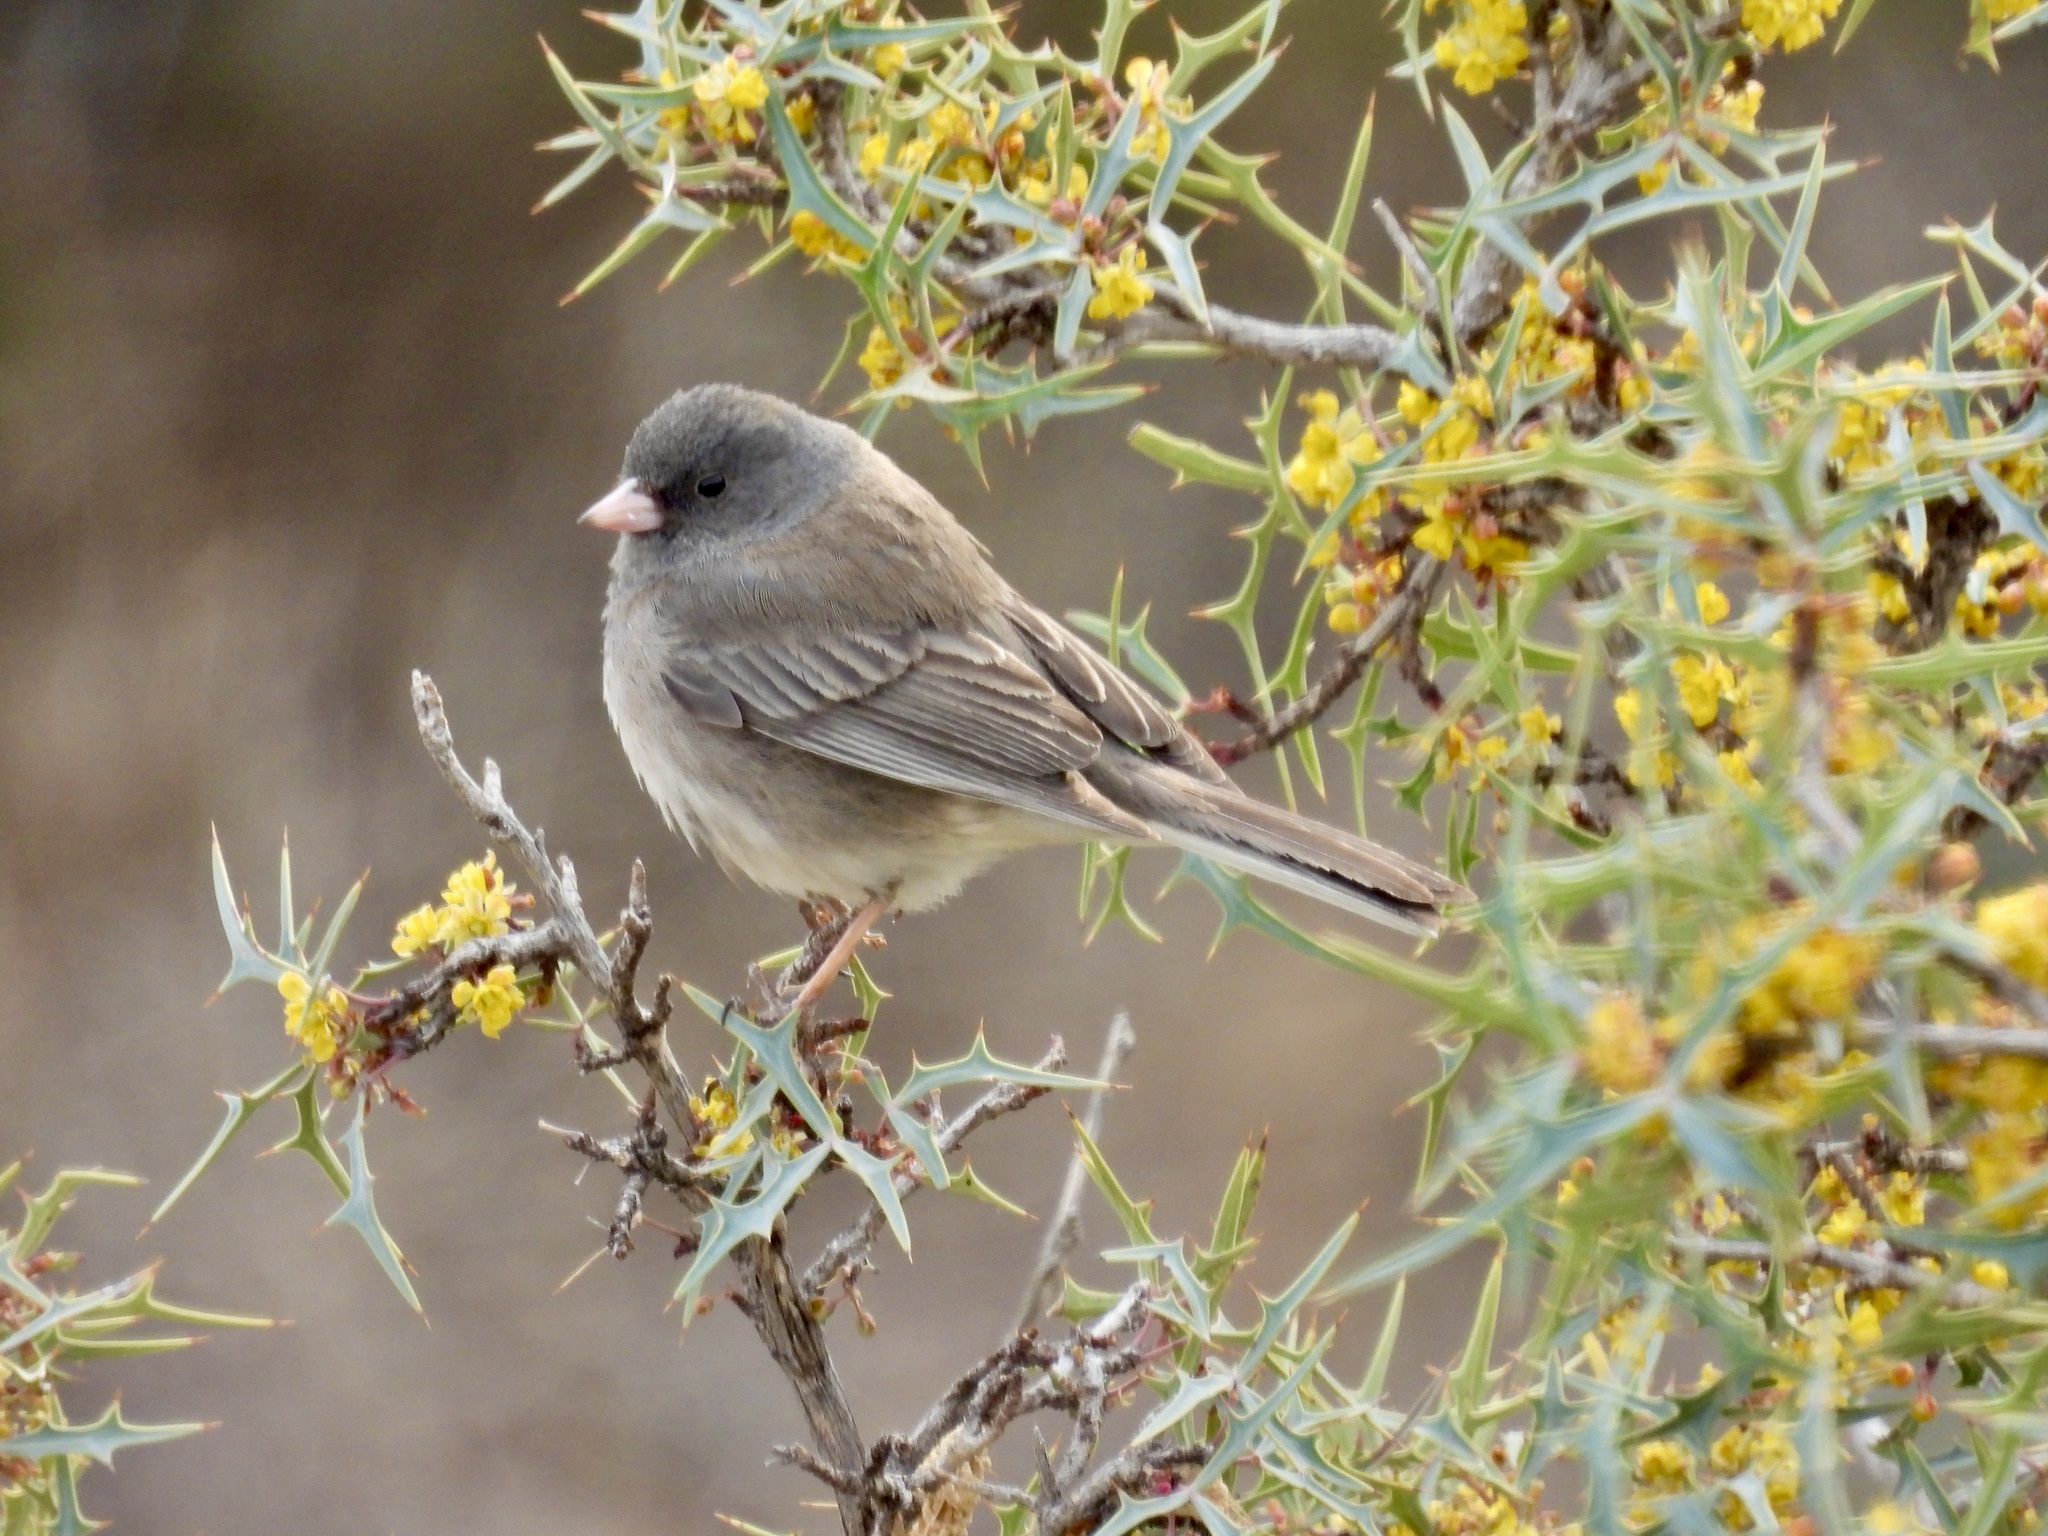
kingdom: Animalia
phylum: Chordata
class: Aves
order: Passeriformes
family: Passerellidae
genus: Junco
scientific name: Junco hyemalis
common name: Dark-eyed junco
